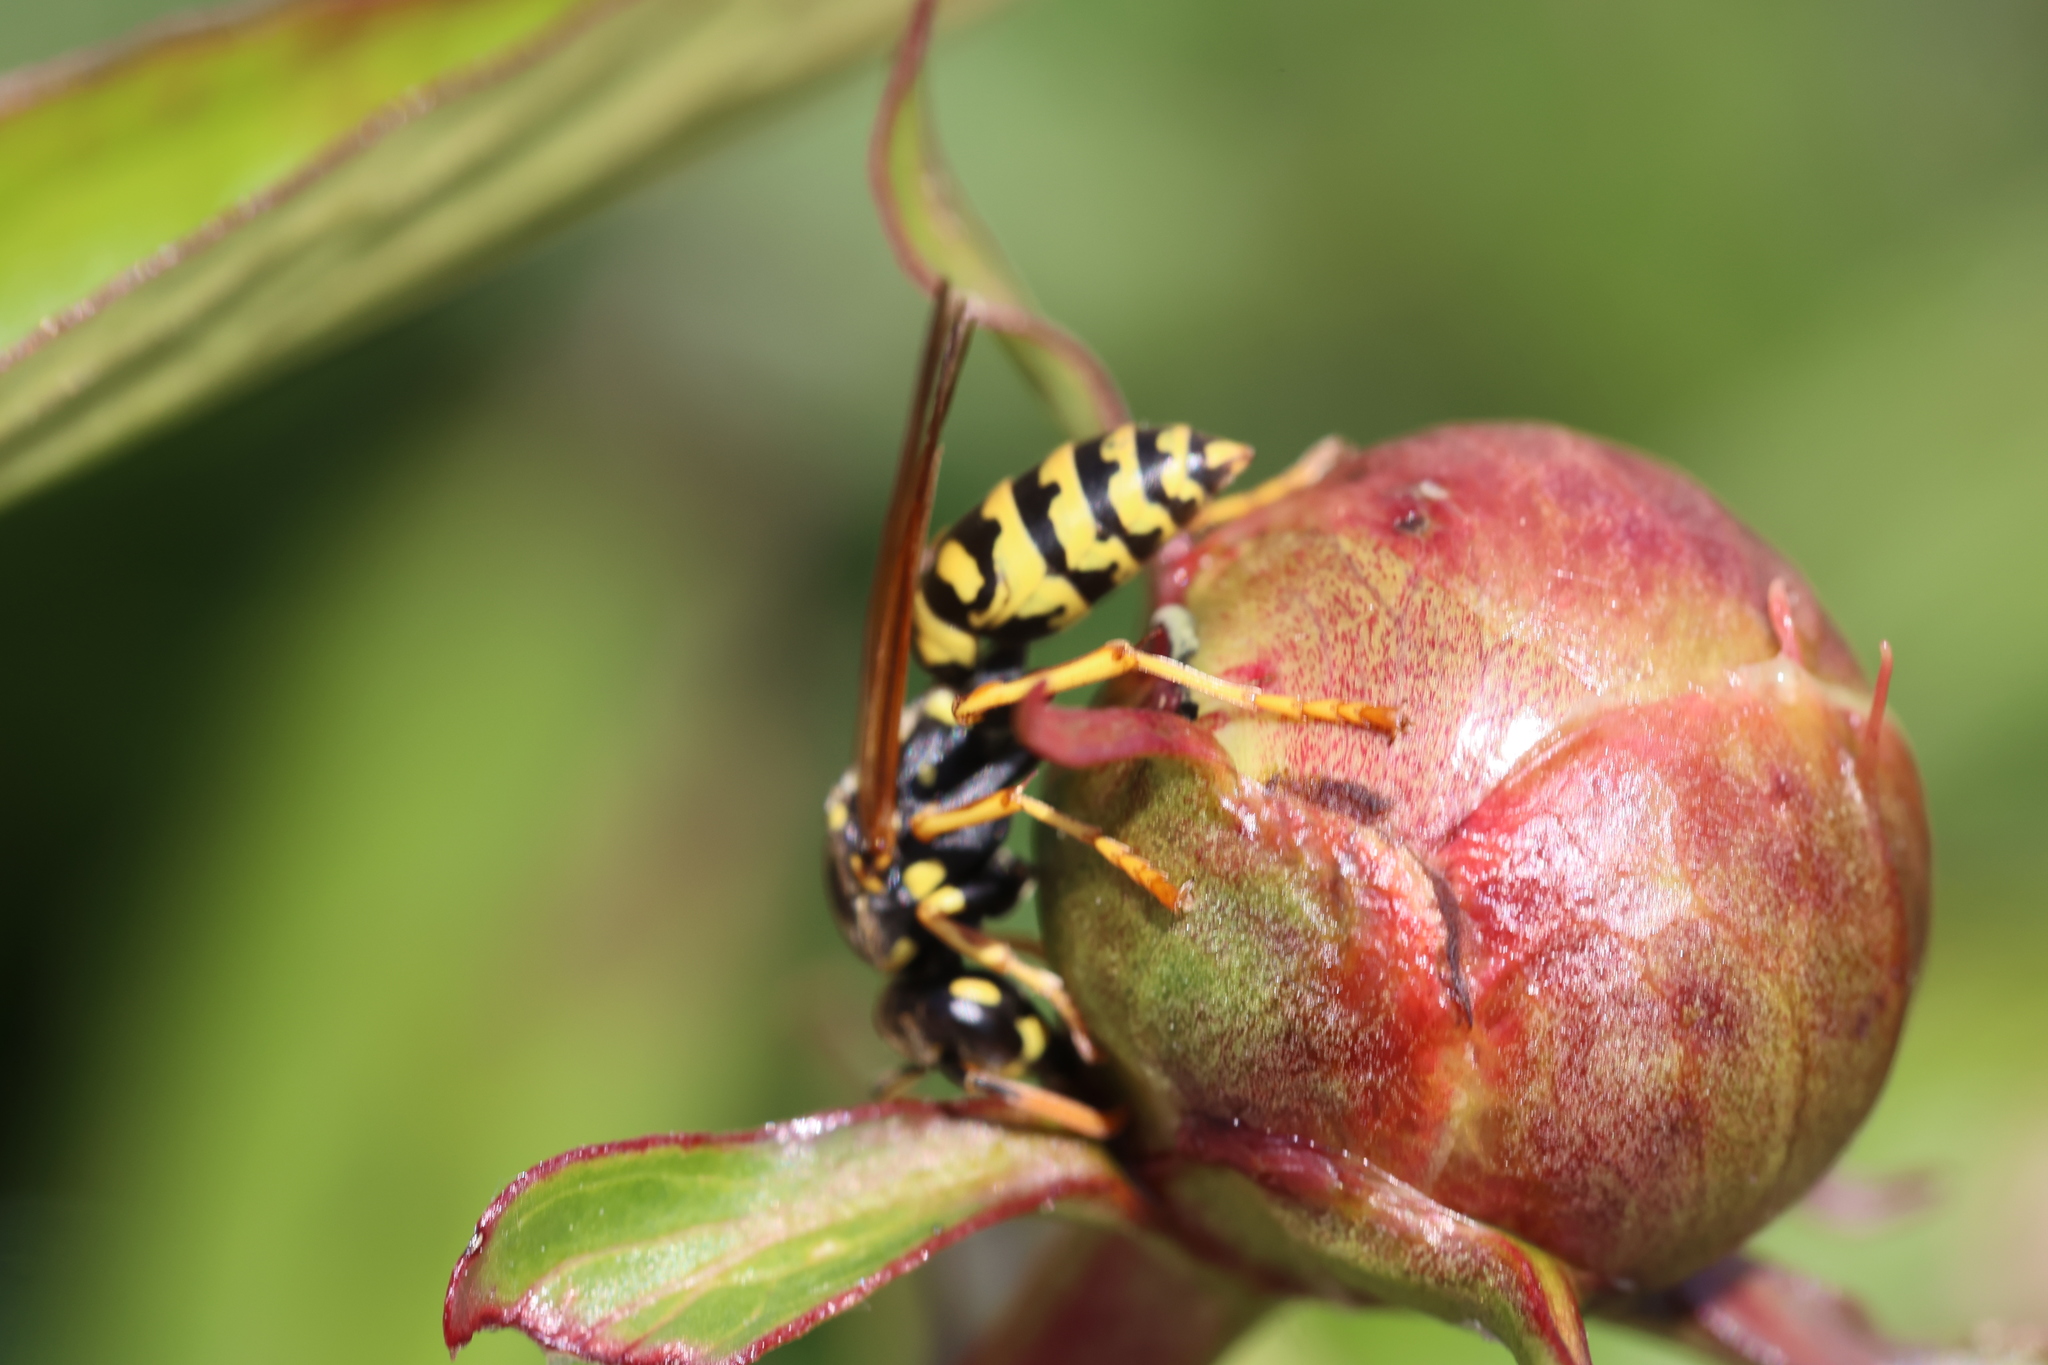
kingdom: Animalia
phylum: Arthropoda
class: Insecta
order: Hymenoptera
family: Eumenidae
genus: Polistes
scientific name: Polistes dominula
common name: Paper wasp
